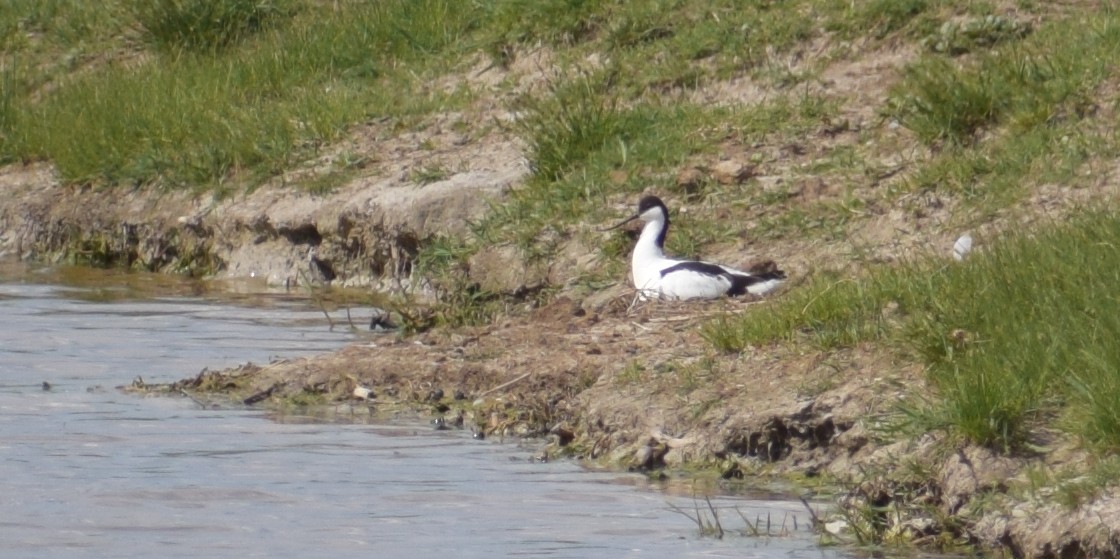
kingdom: Animalia
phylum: Chordata
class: Aves
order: Charadriiformes
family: Recurvirostridae
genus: Recurvirostra
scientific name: Recurvirostra avosetta
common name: Pied avocet
